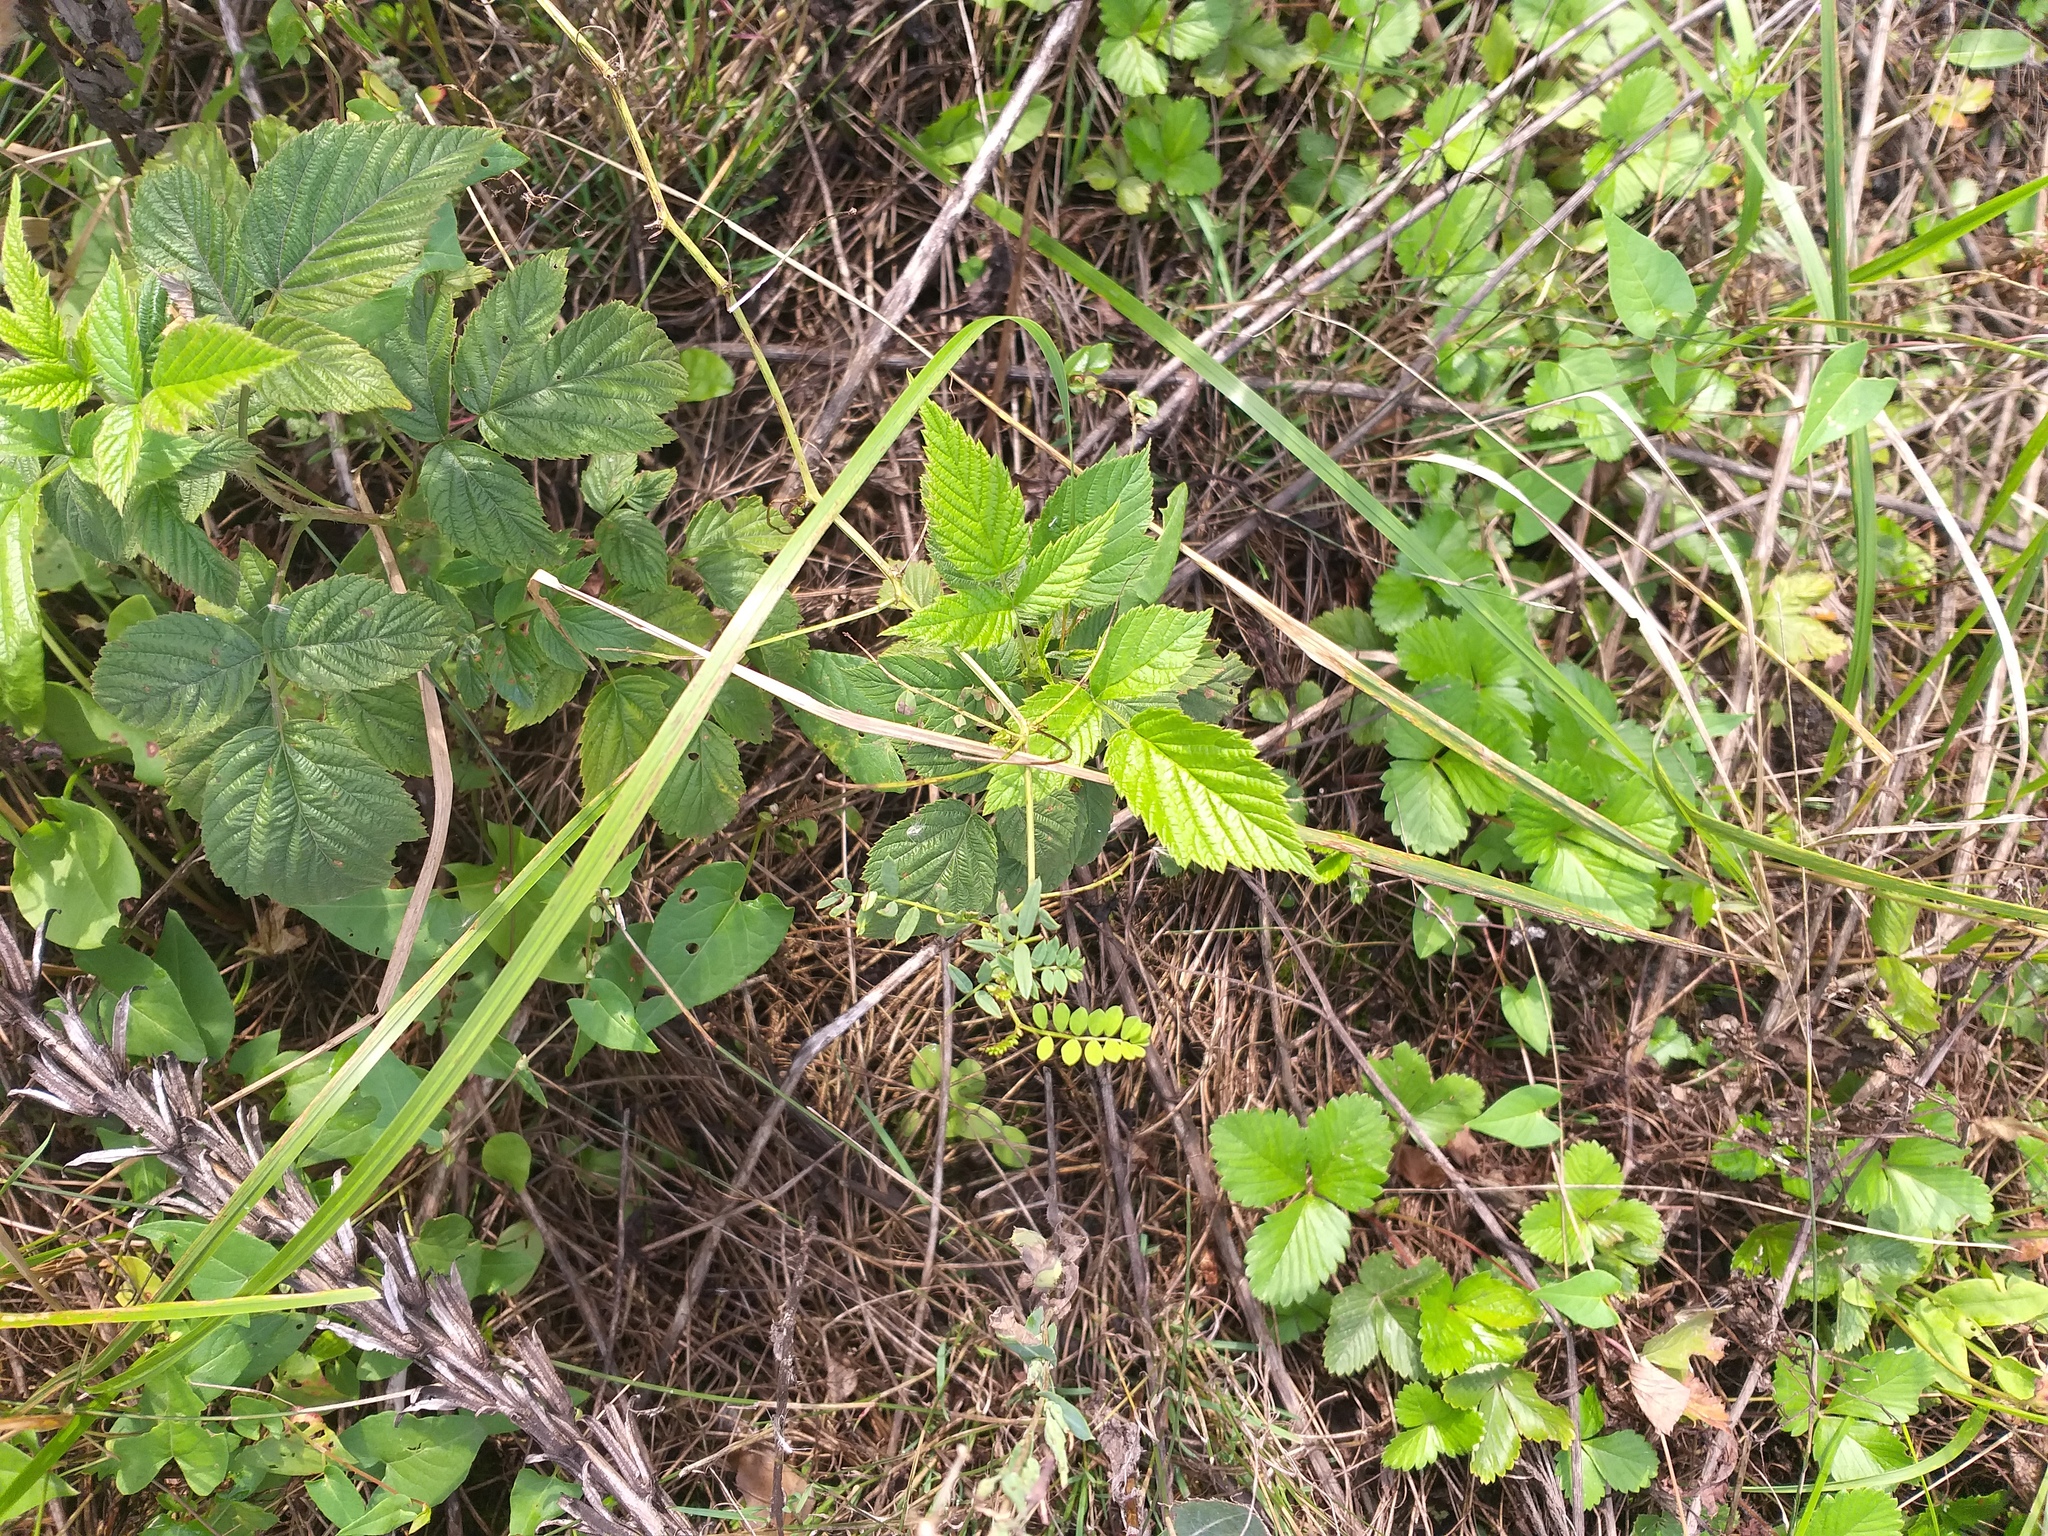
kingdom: Plantae
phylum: Tracheophyta
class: Magnoliopsida
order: Rosales
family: Rosaceae
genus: Rubus
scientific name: Rubus idaeus
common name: Raspberry
